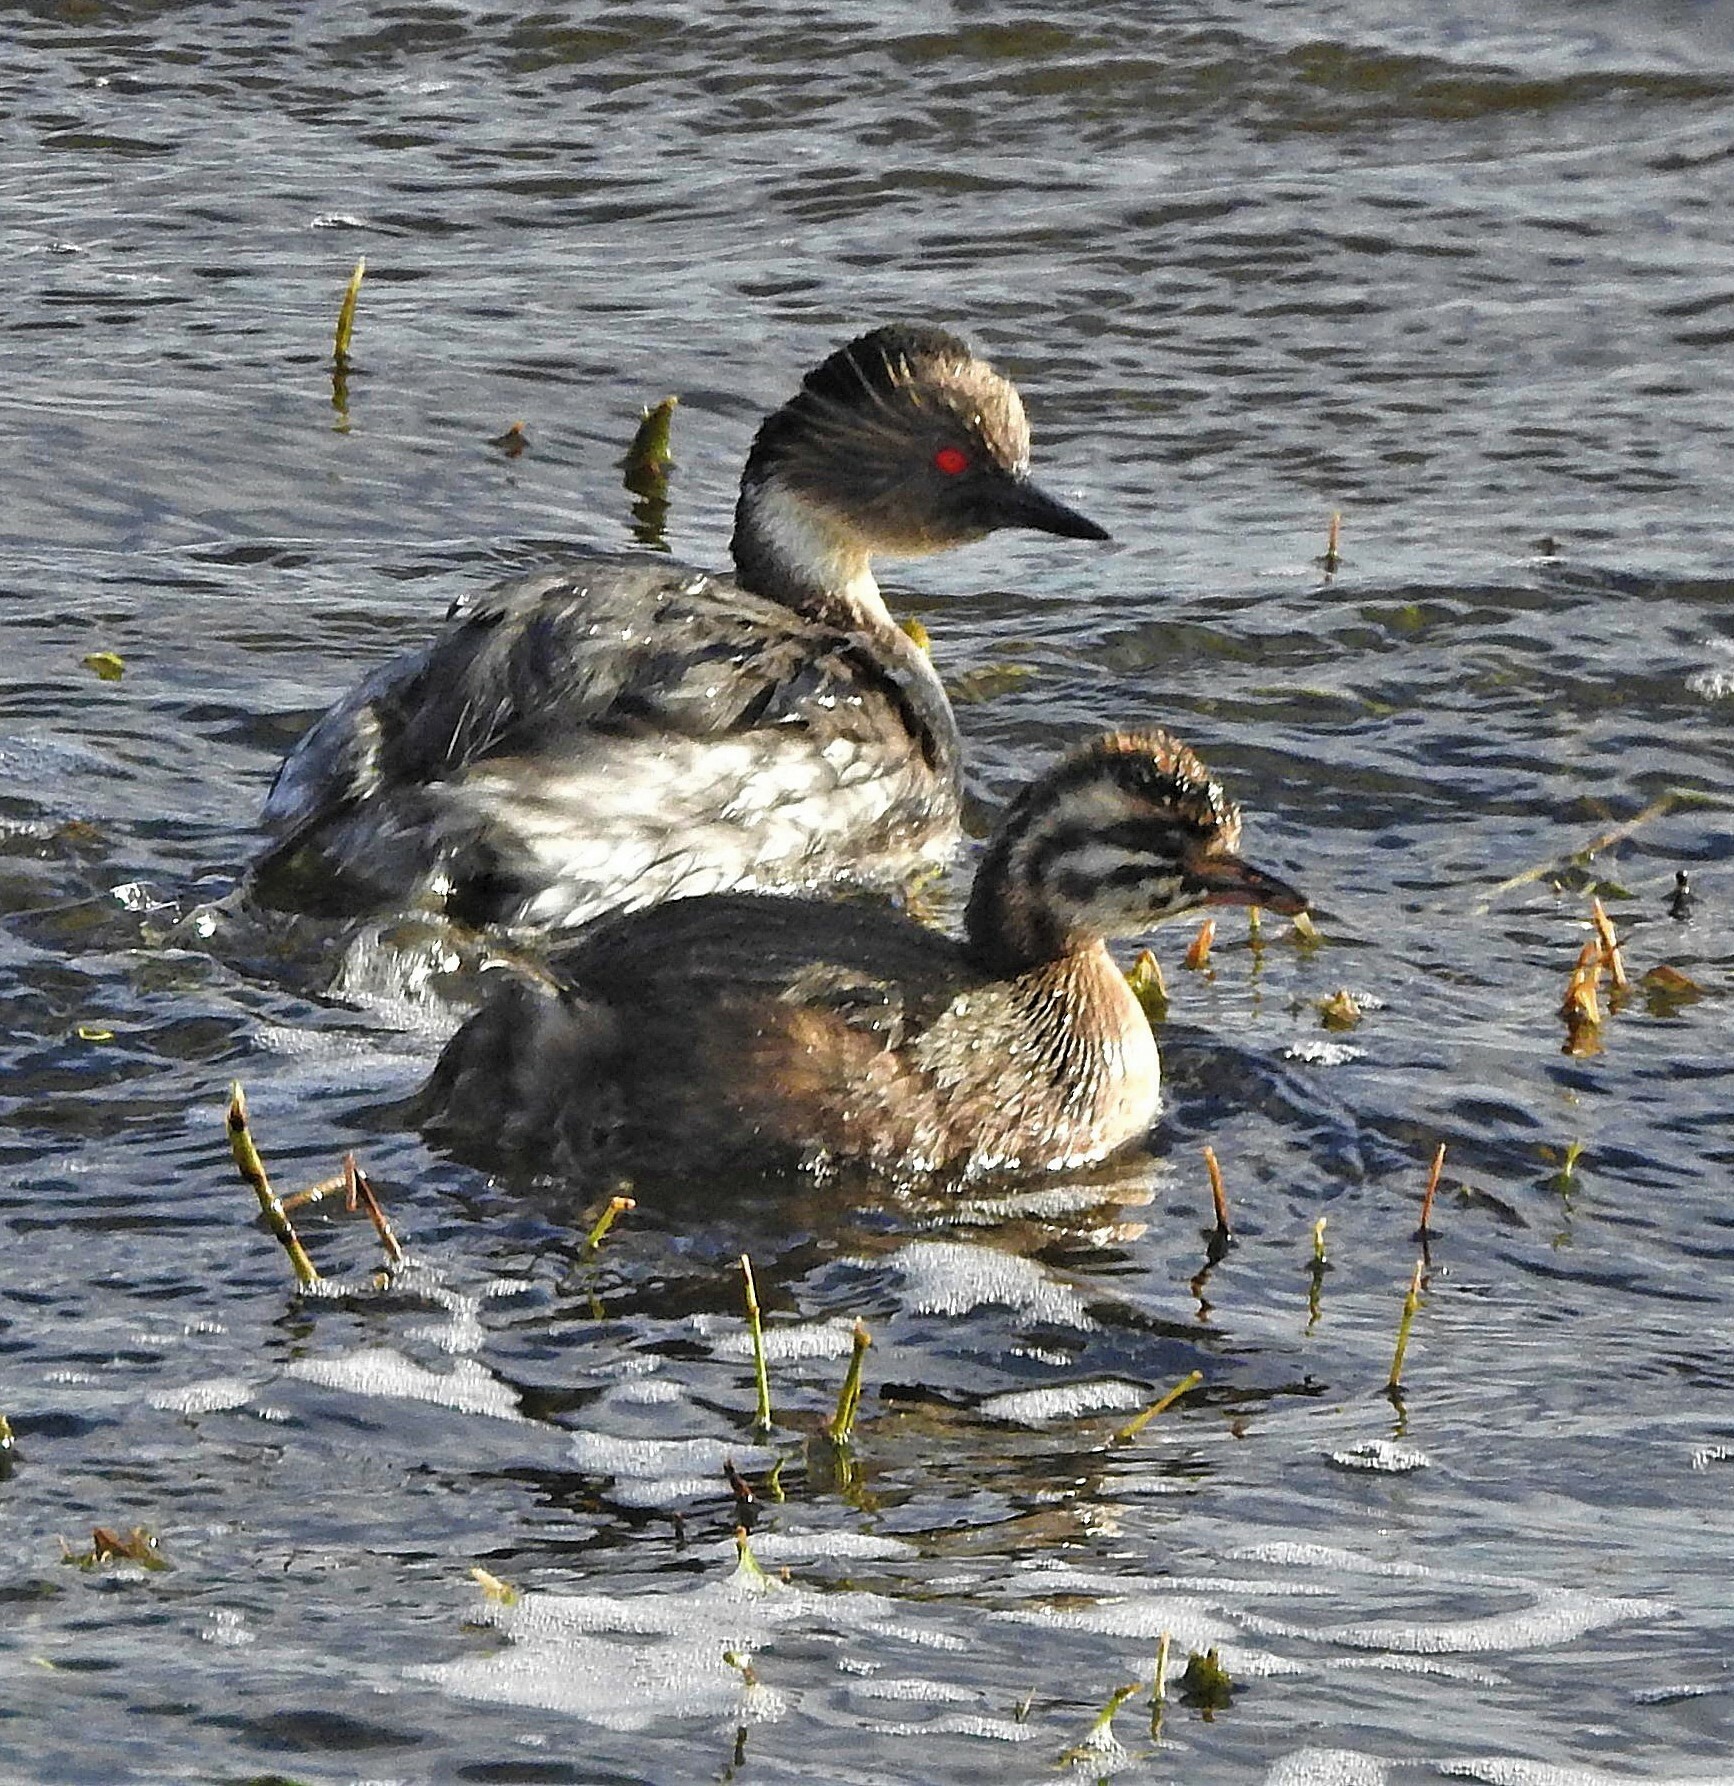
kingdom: Animalia
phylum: Chordata
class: Aves
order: Podicipediformes
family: Podicipedidae
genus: Podiceps
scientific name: Podiceps occipitalis
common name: Silvery grebe
